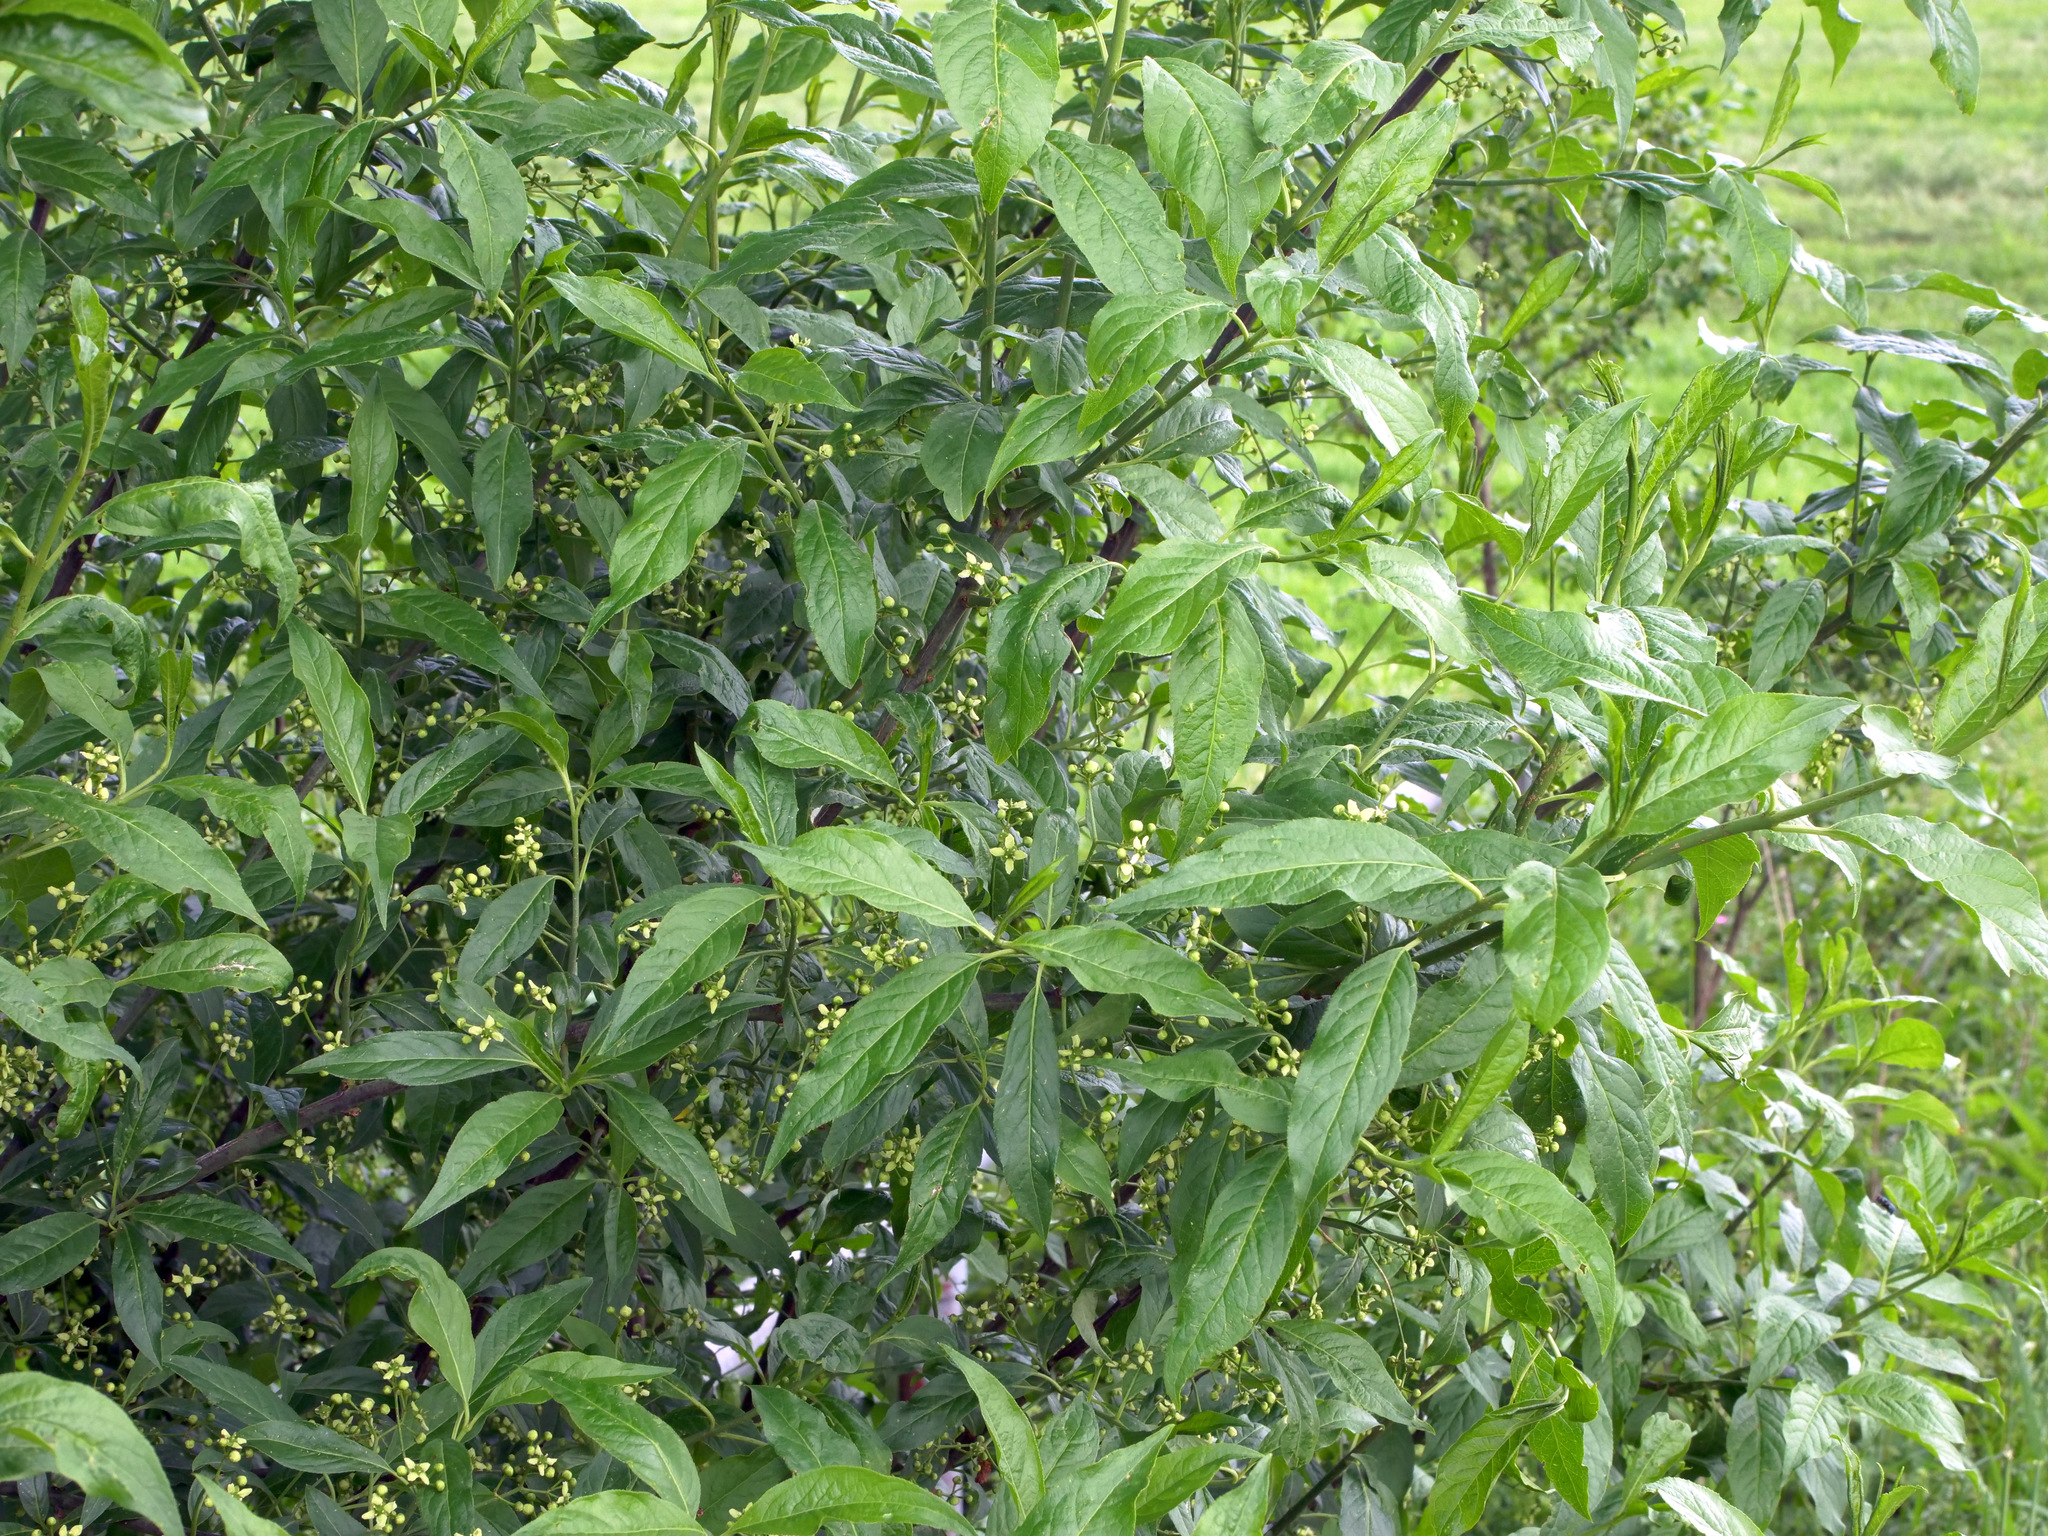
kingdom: Plantae
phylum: Tracheophyta
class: Magnoliopsida
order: Celastrales
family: Celastraceae
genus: Euonymus
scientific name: Euonymus europaeus
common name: Spindle
